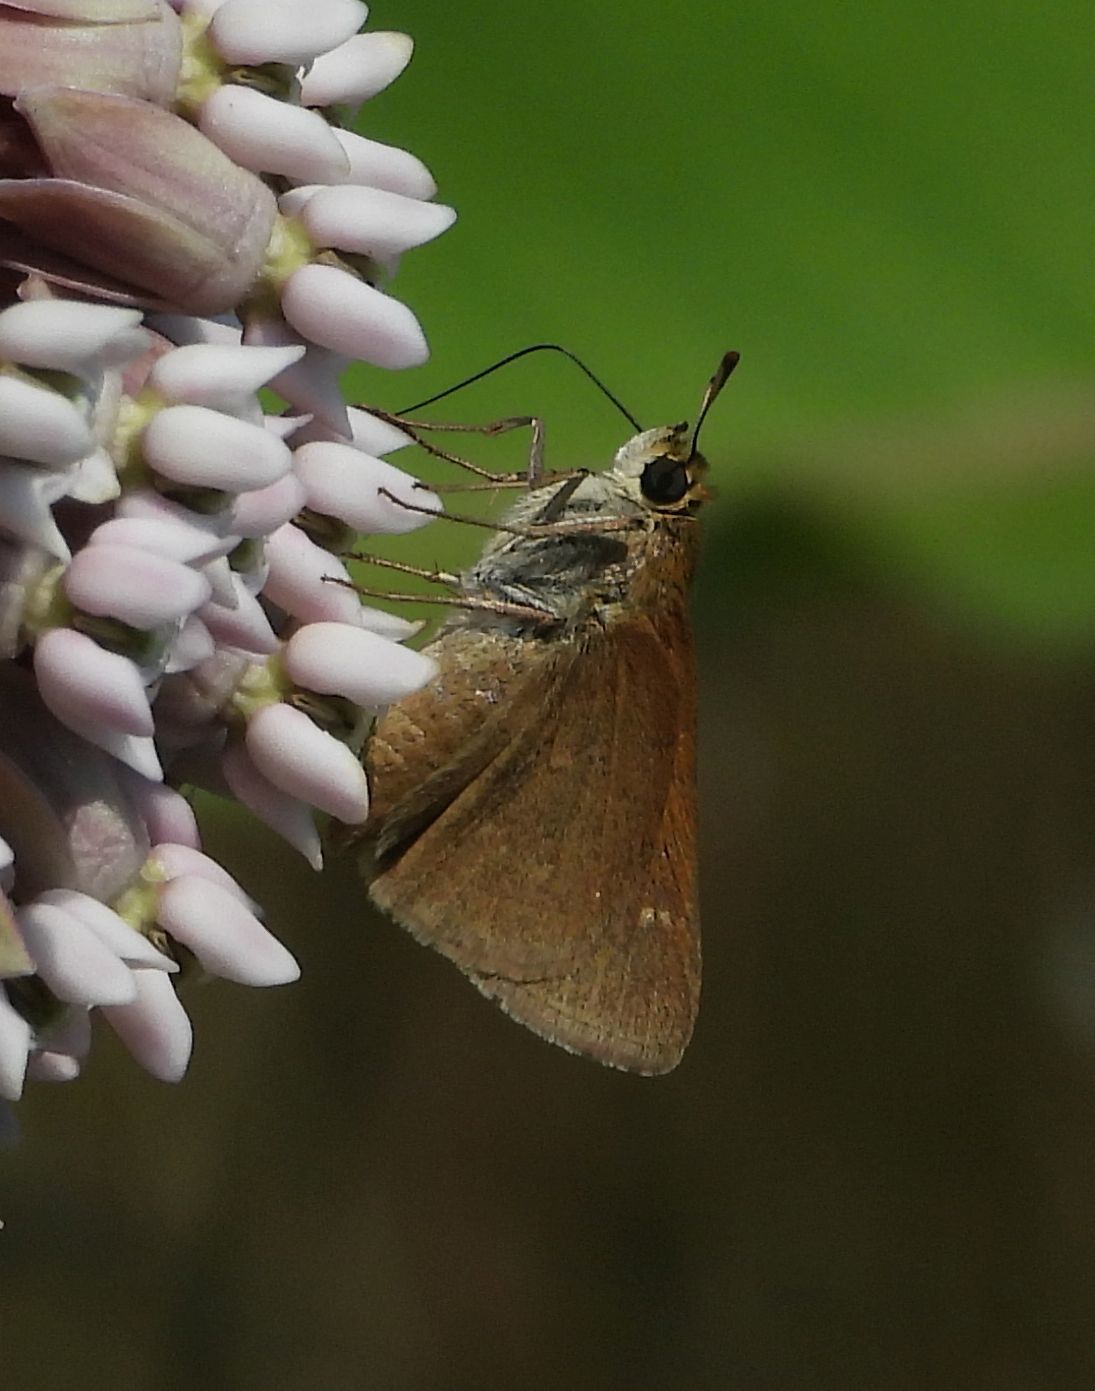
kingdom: Animalia
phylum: Arthropoda
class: Insecta
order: Lepidoptera
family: Hesperiidae
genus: Euphyes
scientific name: Euphyes vestris
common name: Dun skipper
